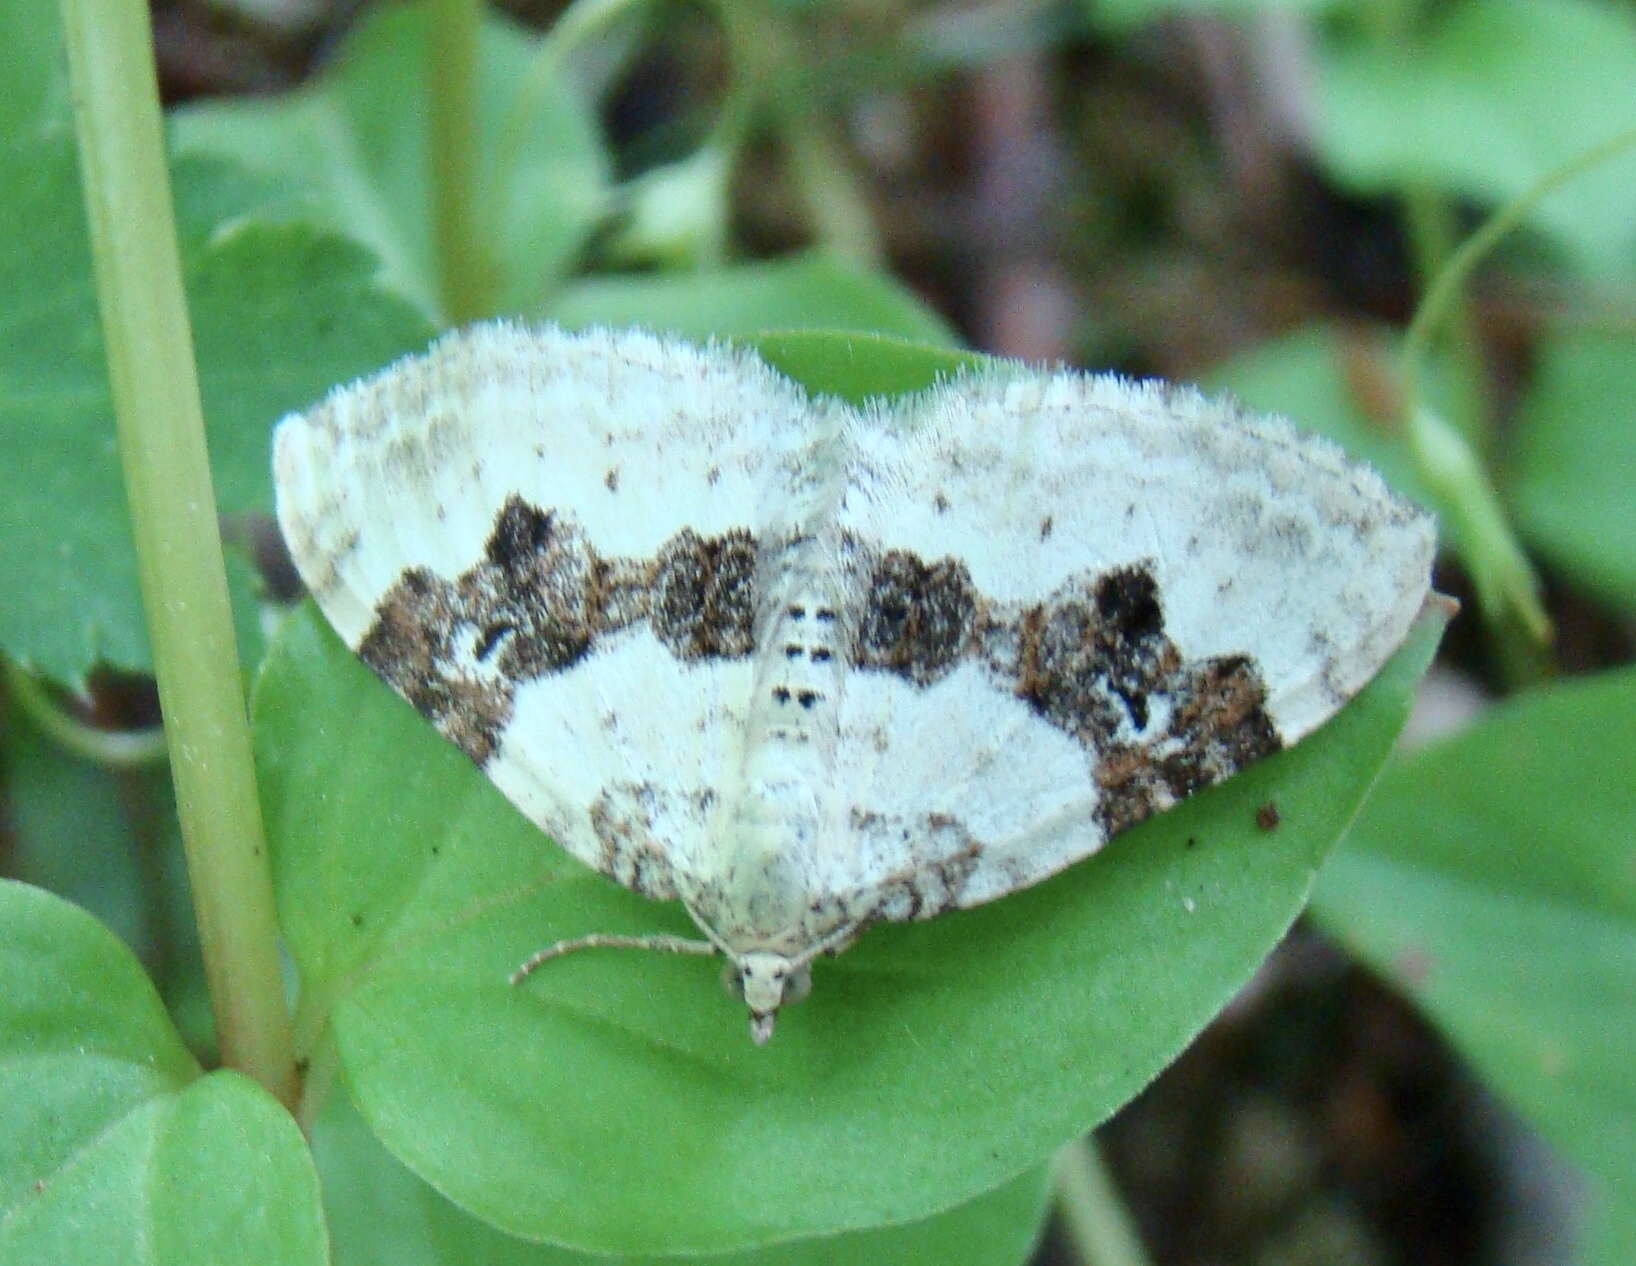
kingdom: Animalia
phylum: Arthropoda
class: Insecta
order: Lepidoptera
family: Geometridae
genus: Xanthorhoe
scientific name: Xanthorhoe montanata
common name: Silver-ground carpet
